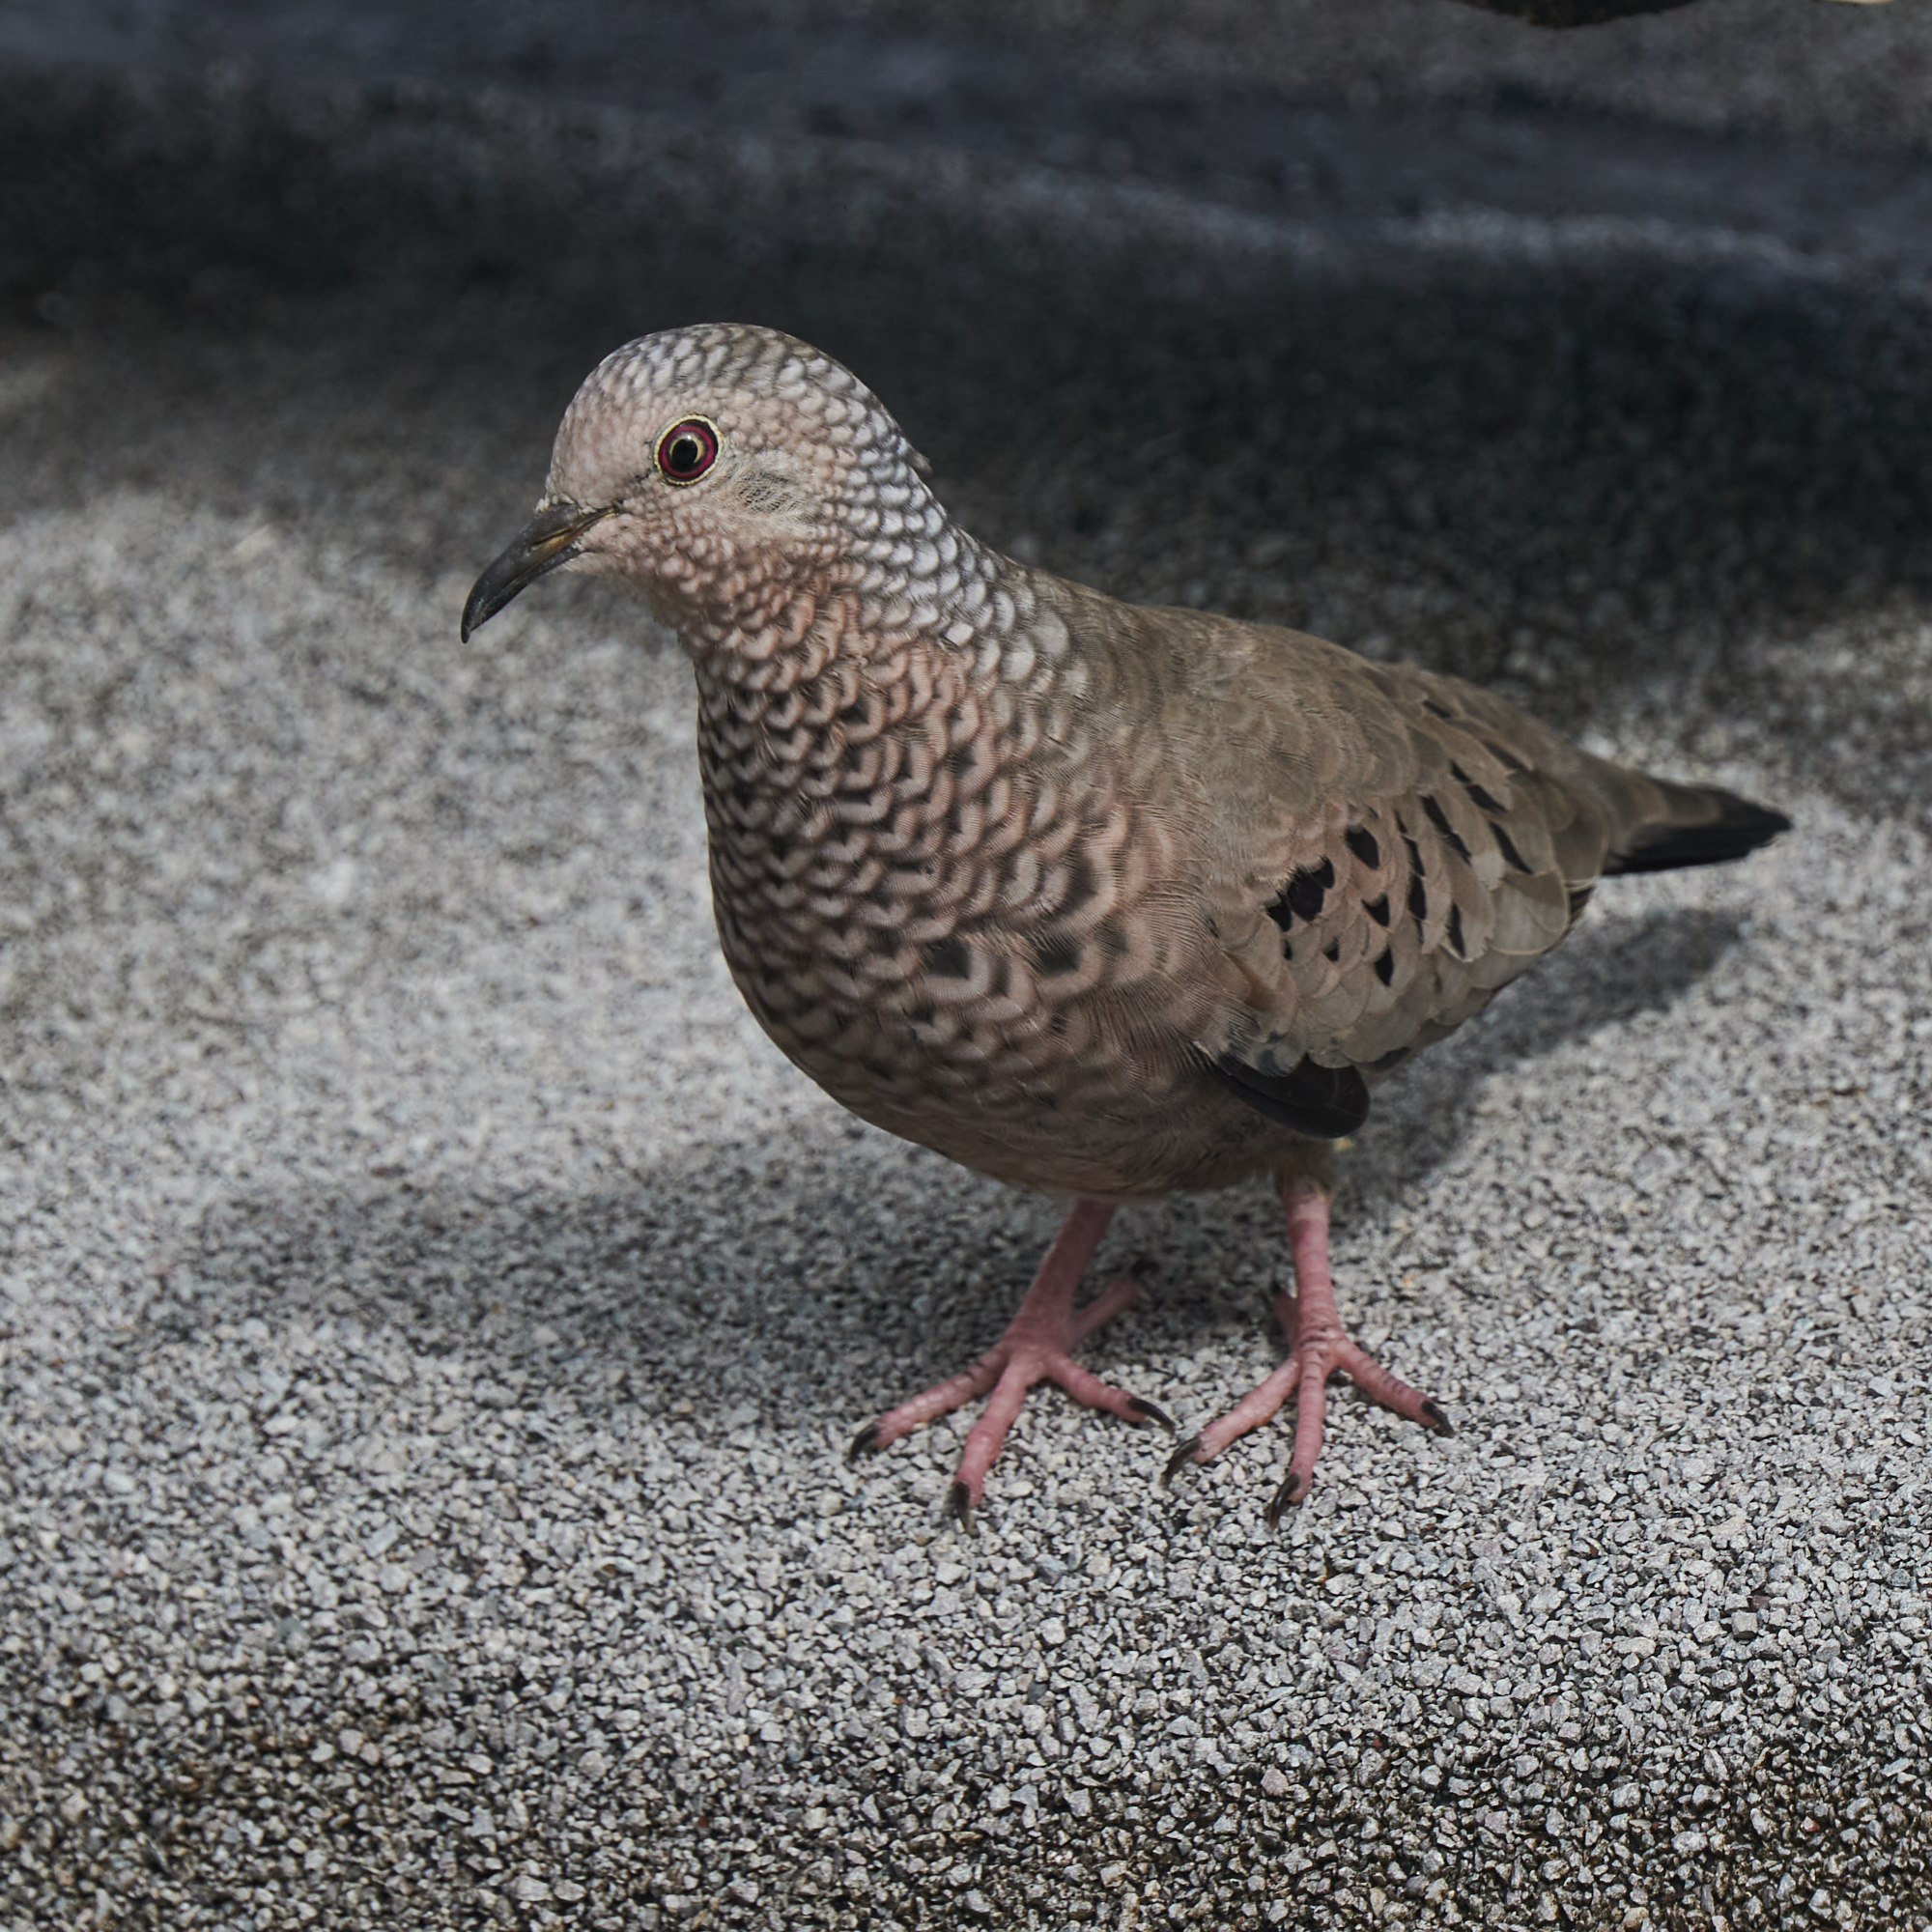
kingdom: Animalia
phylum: Chordata
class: Aves
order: Columbiformes
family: Columbidae
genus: Columbina
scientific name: Columbina passerina
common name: Common ground-dove
